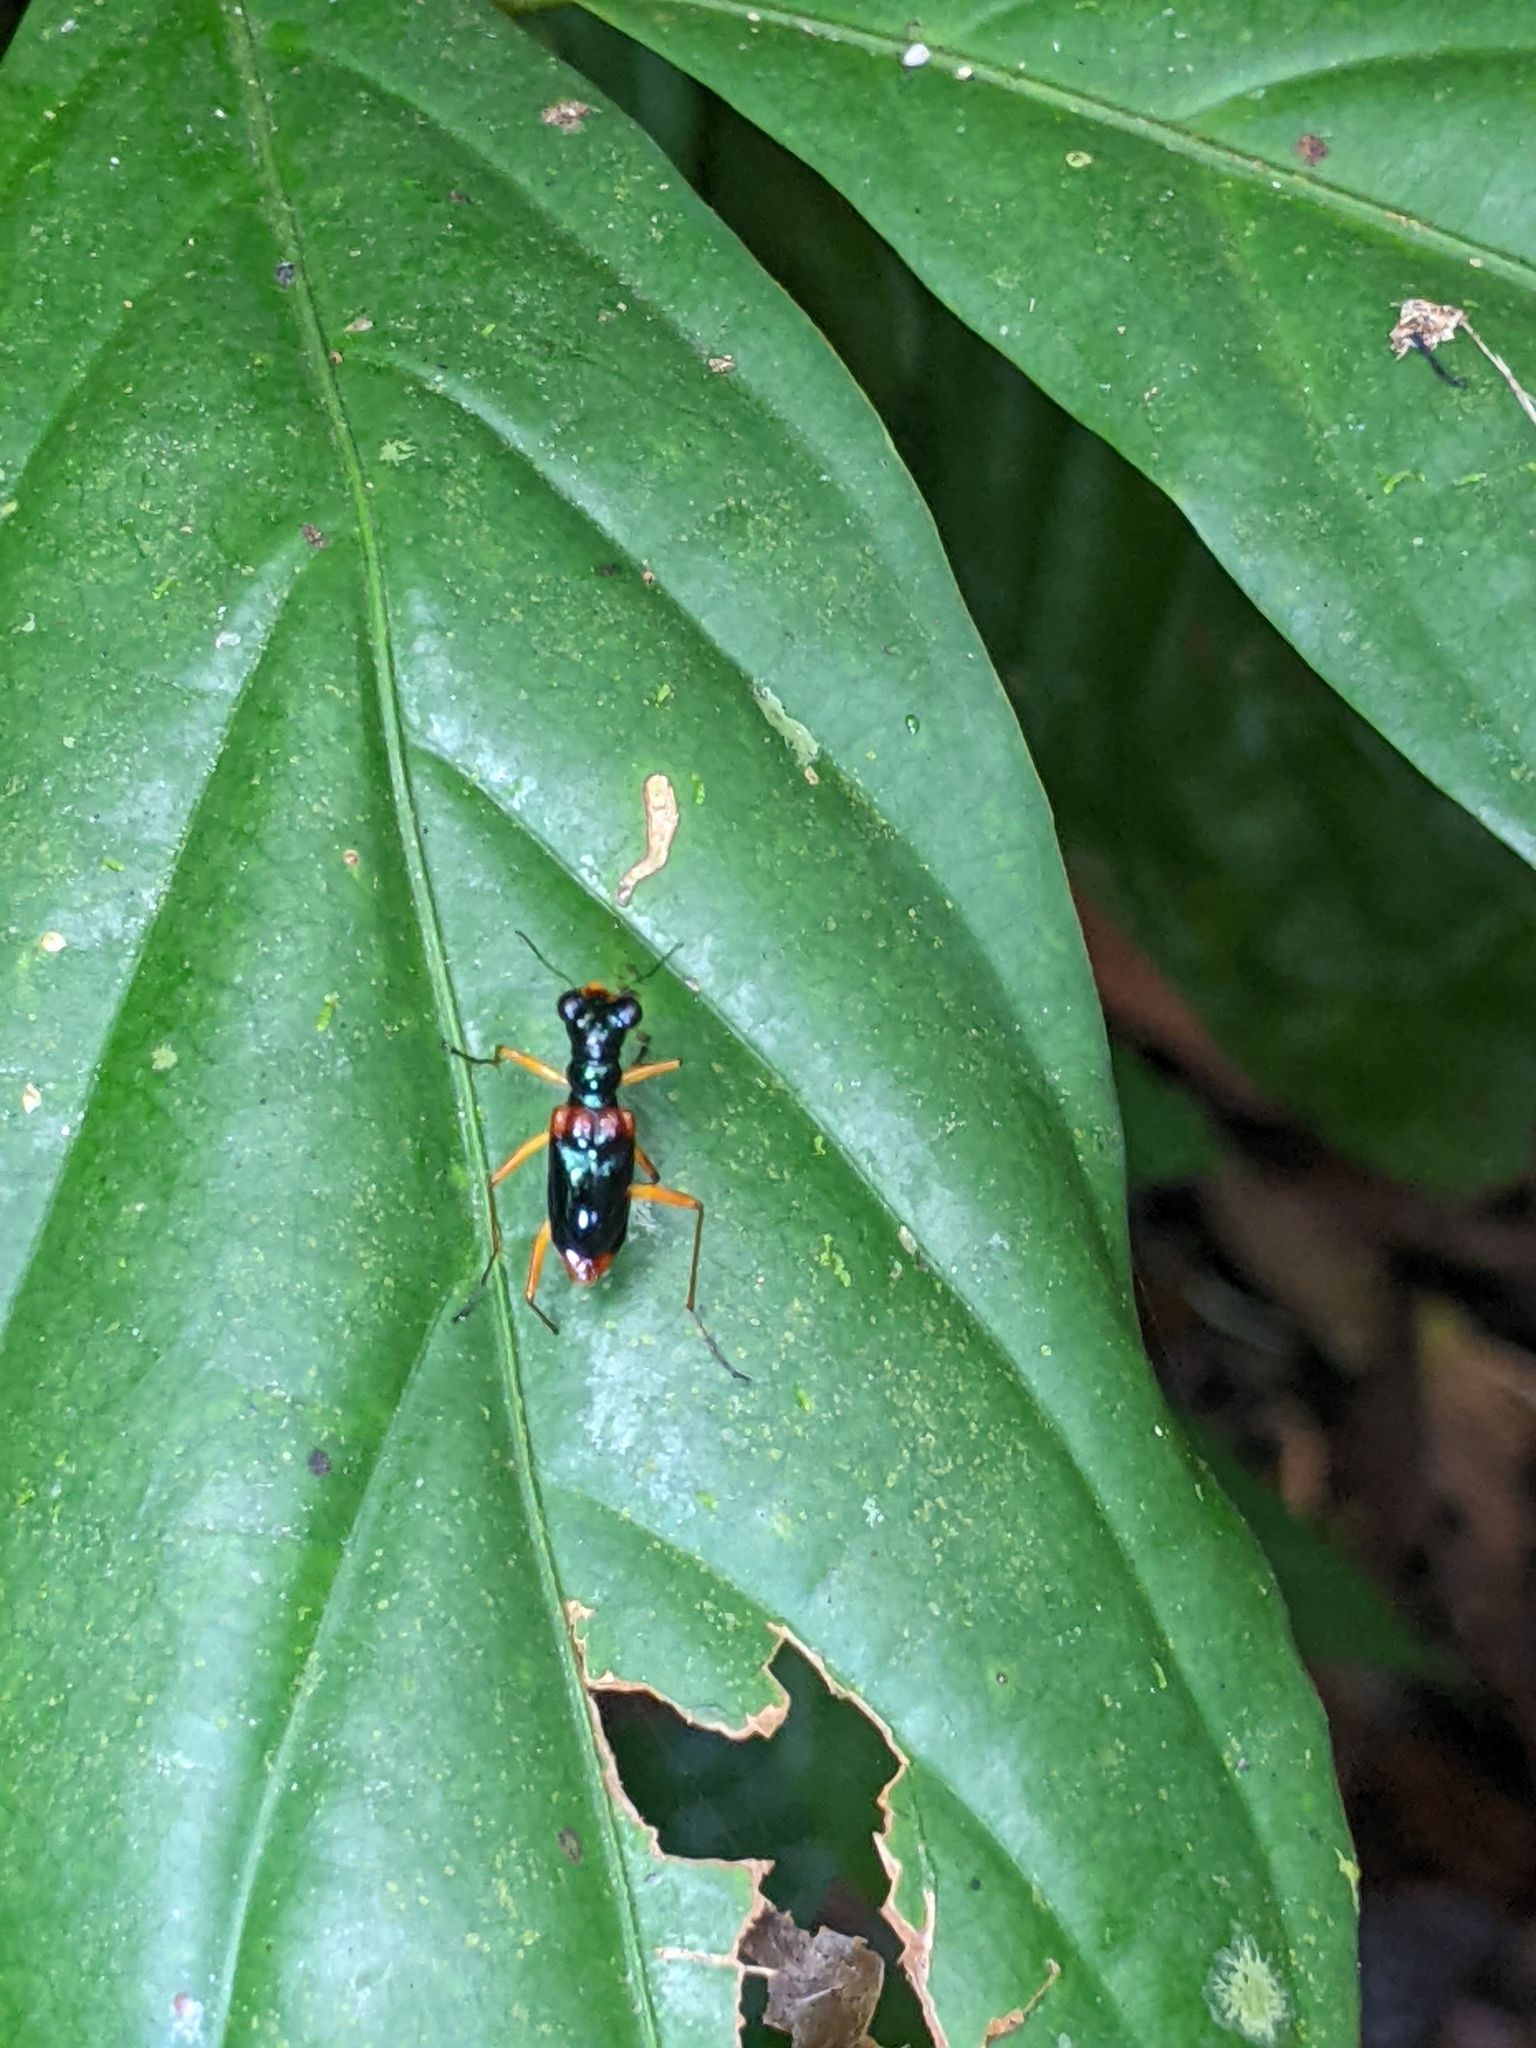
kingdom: Animalia
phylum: Arthropoda
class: Insecta
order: Coleoptera
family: Carabidae
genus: Therates
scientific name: Therates dimidiatus
